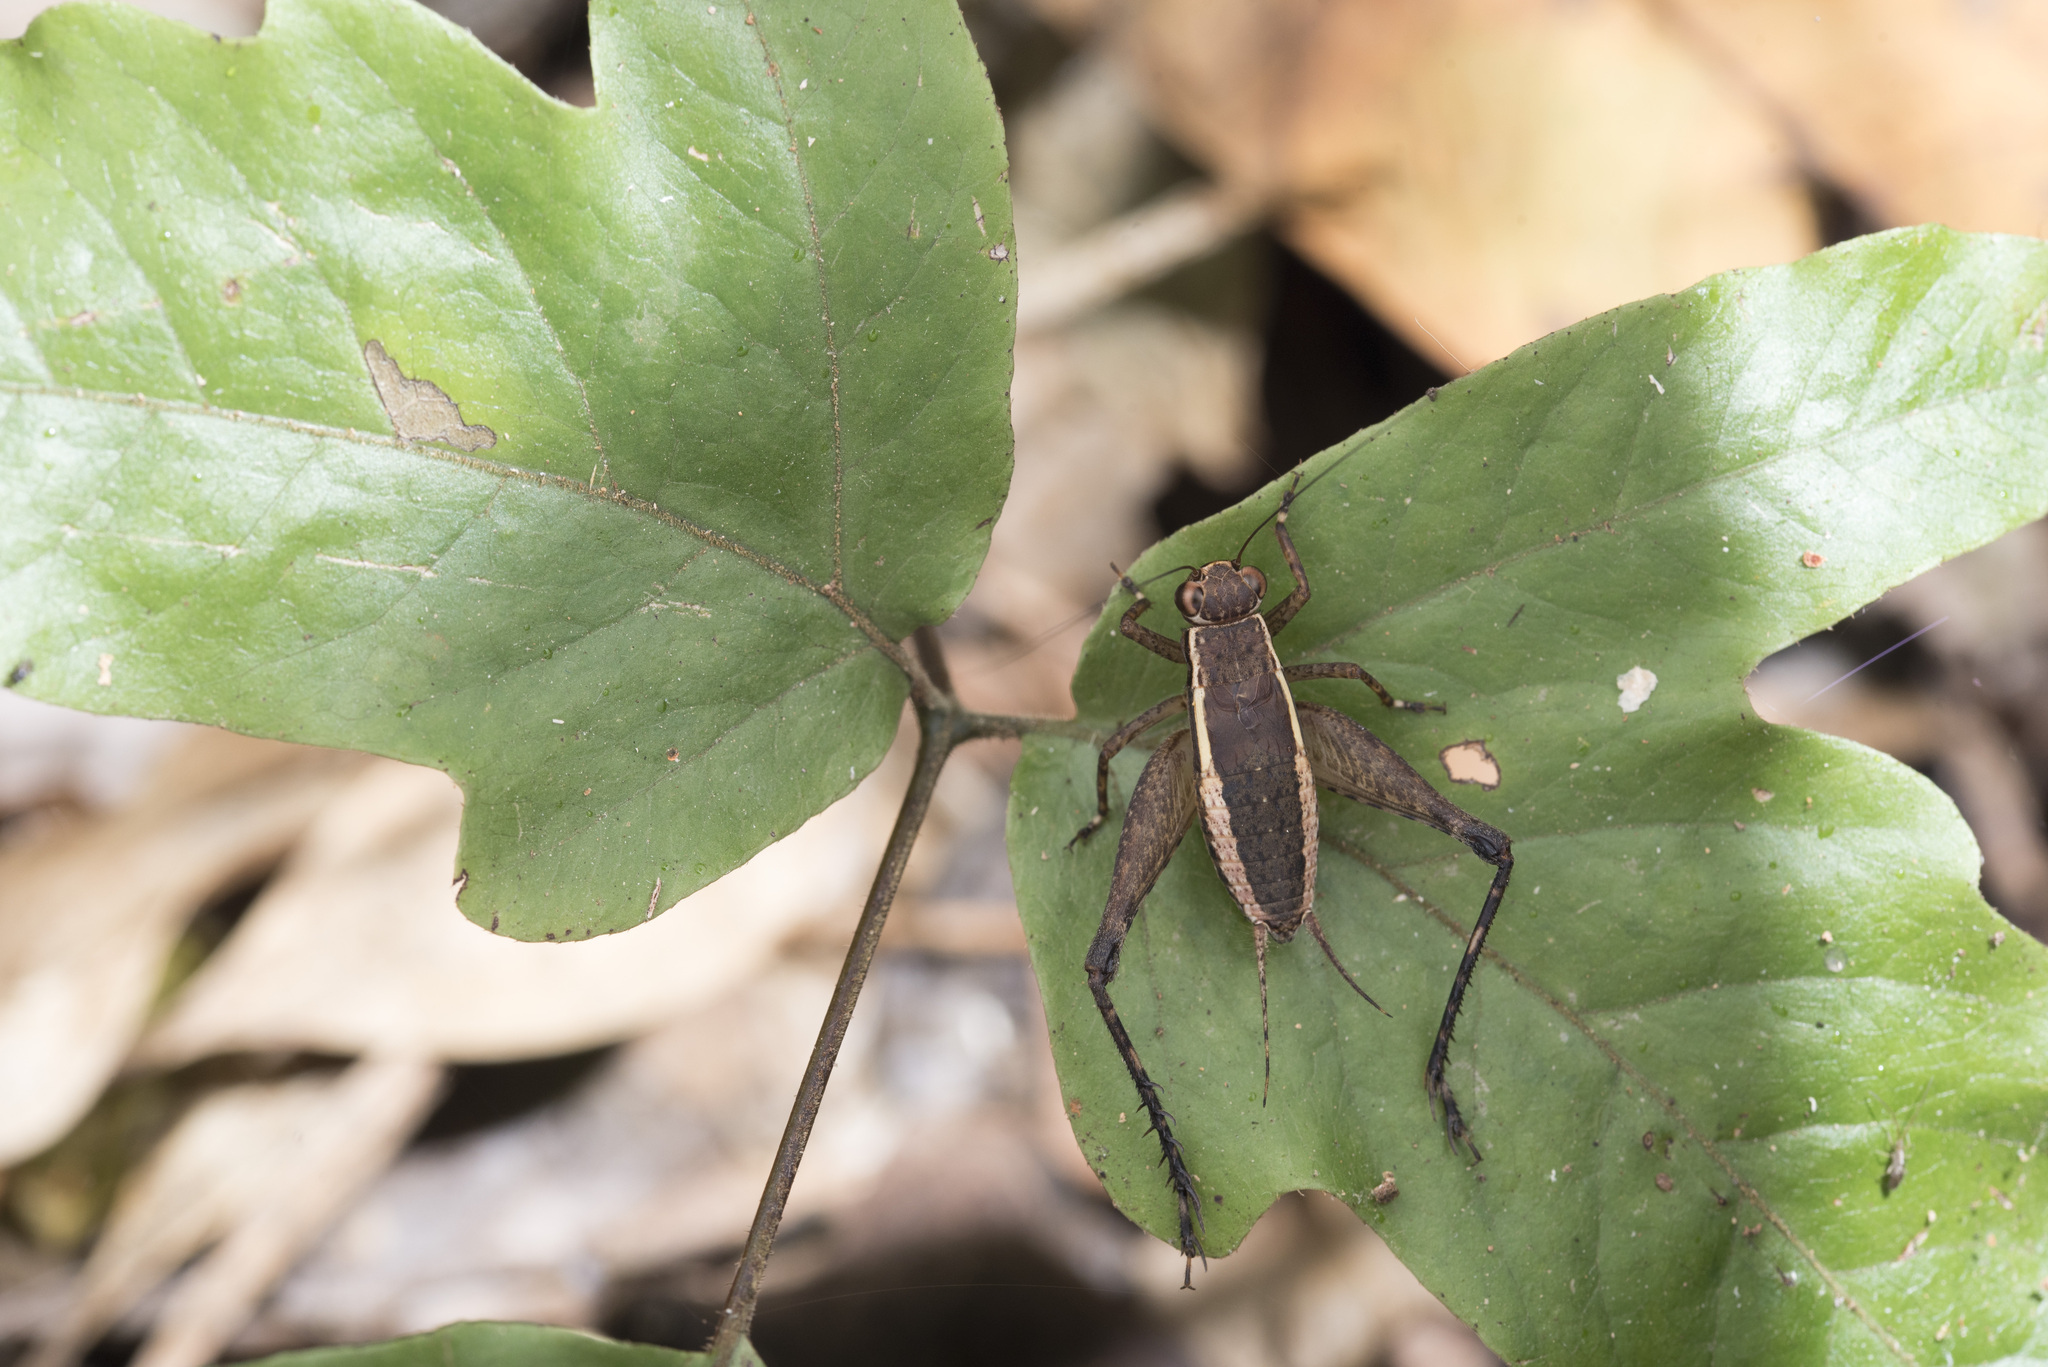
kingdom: Animalia
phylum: Arthropoda
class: Insecta
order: Orthoptera
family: Gryllidae
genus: Lebinthus
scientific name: Lebinthus lanyuensis
